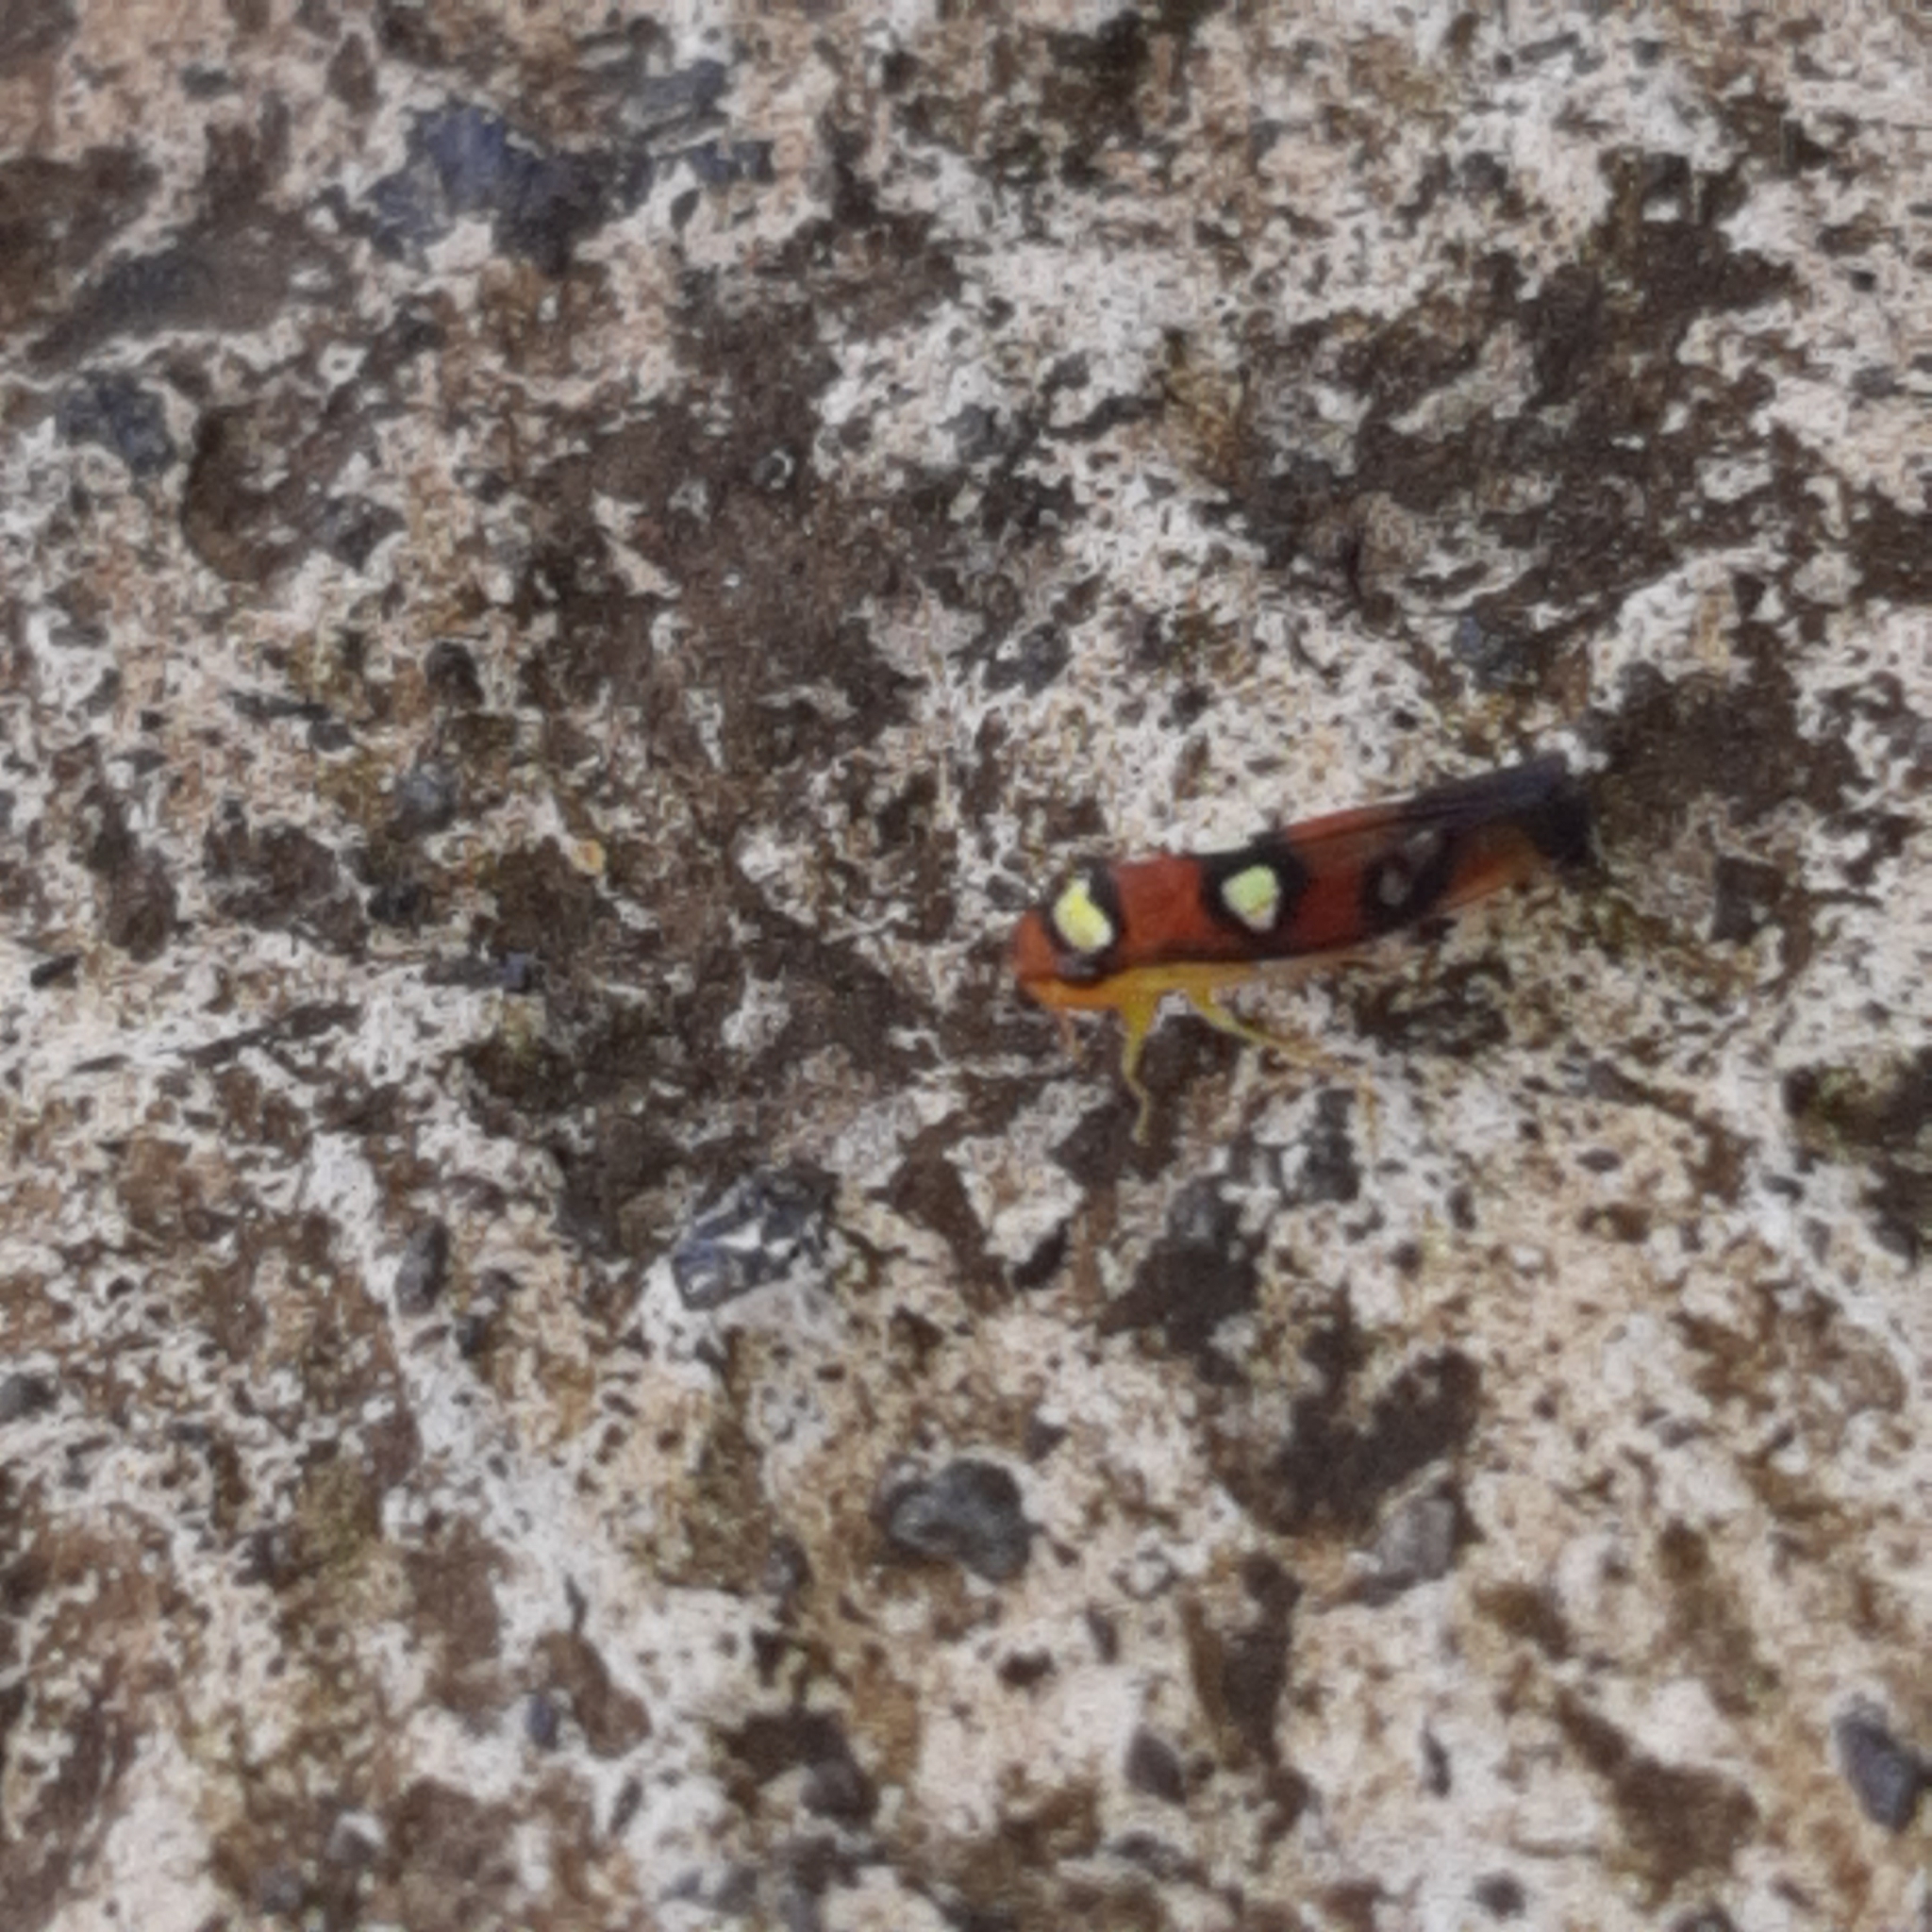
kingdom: Animalia
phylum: Arthropoda
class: Insecta
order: Hemiptera
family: Cicadellidae
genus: Erythrogonia
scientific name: Erythrogonia areolata
